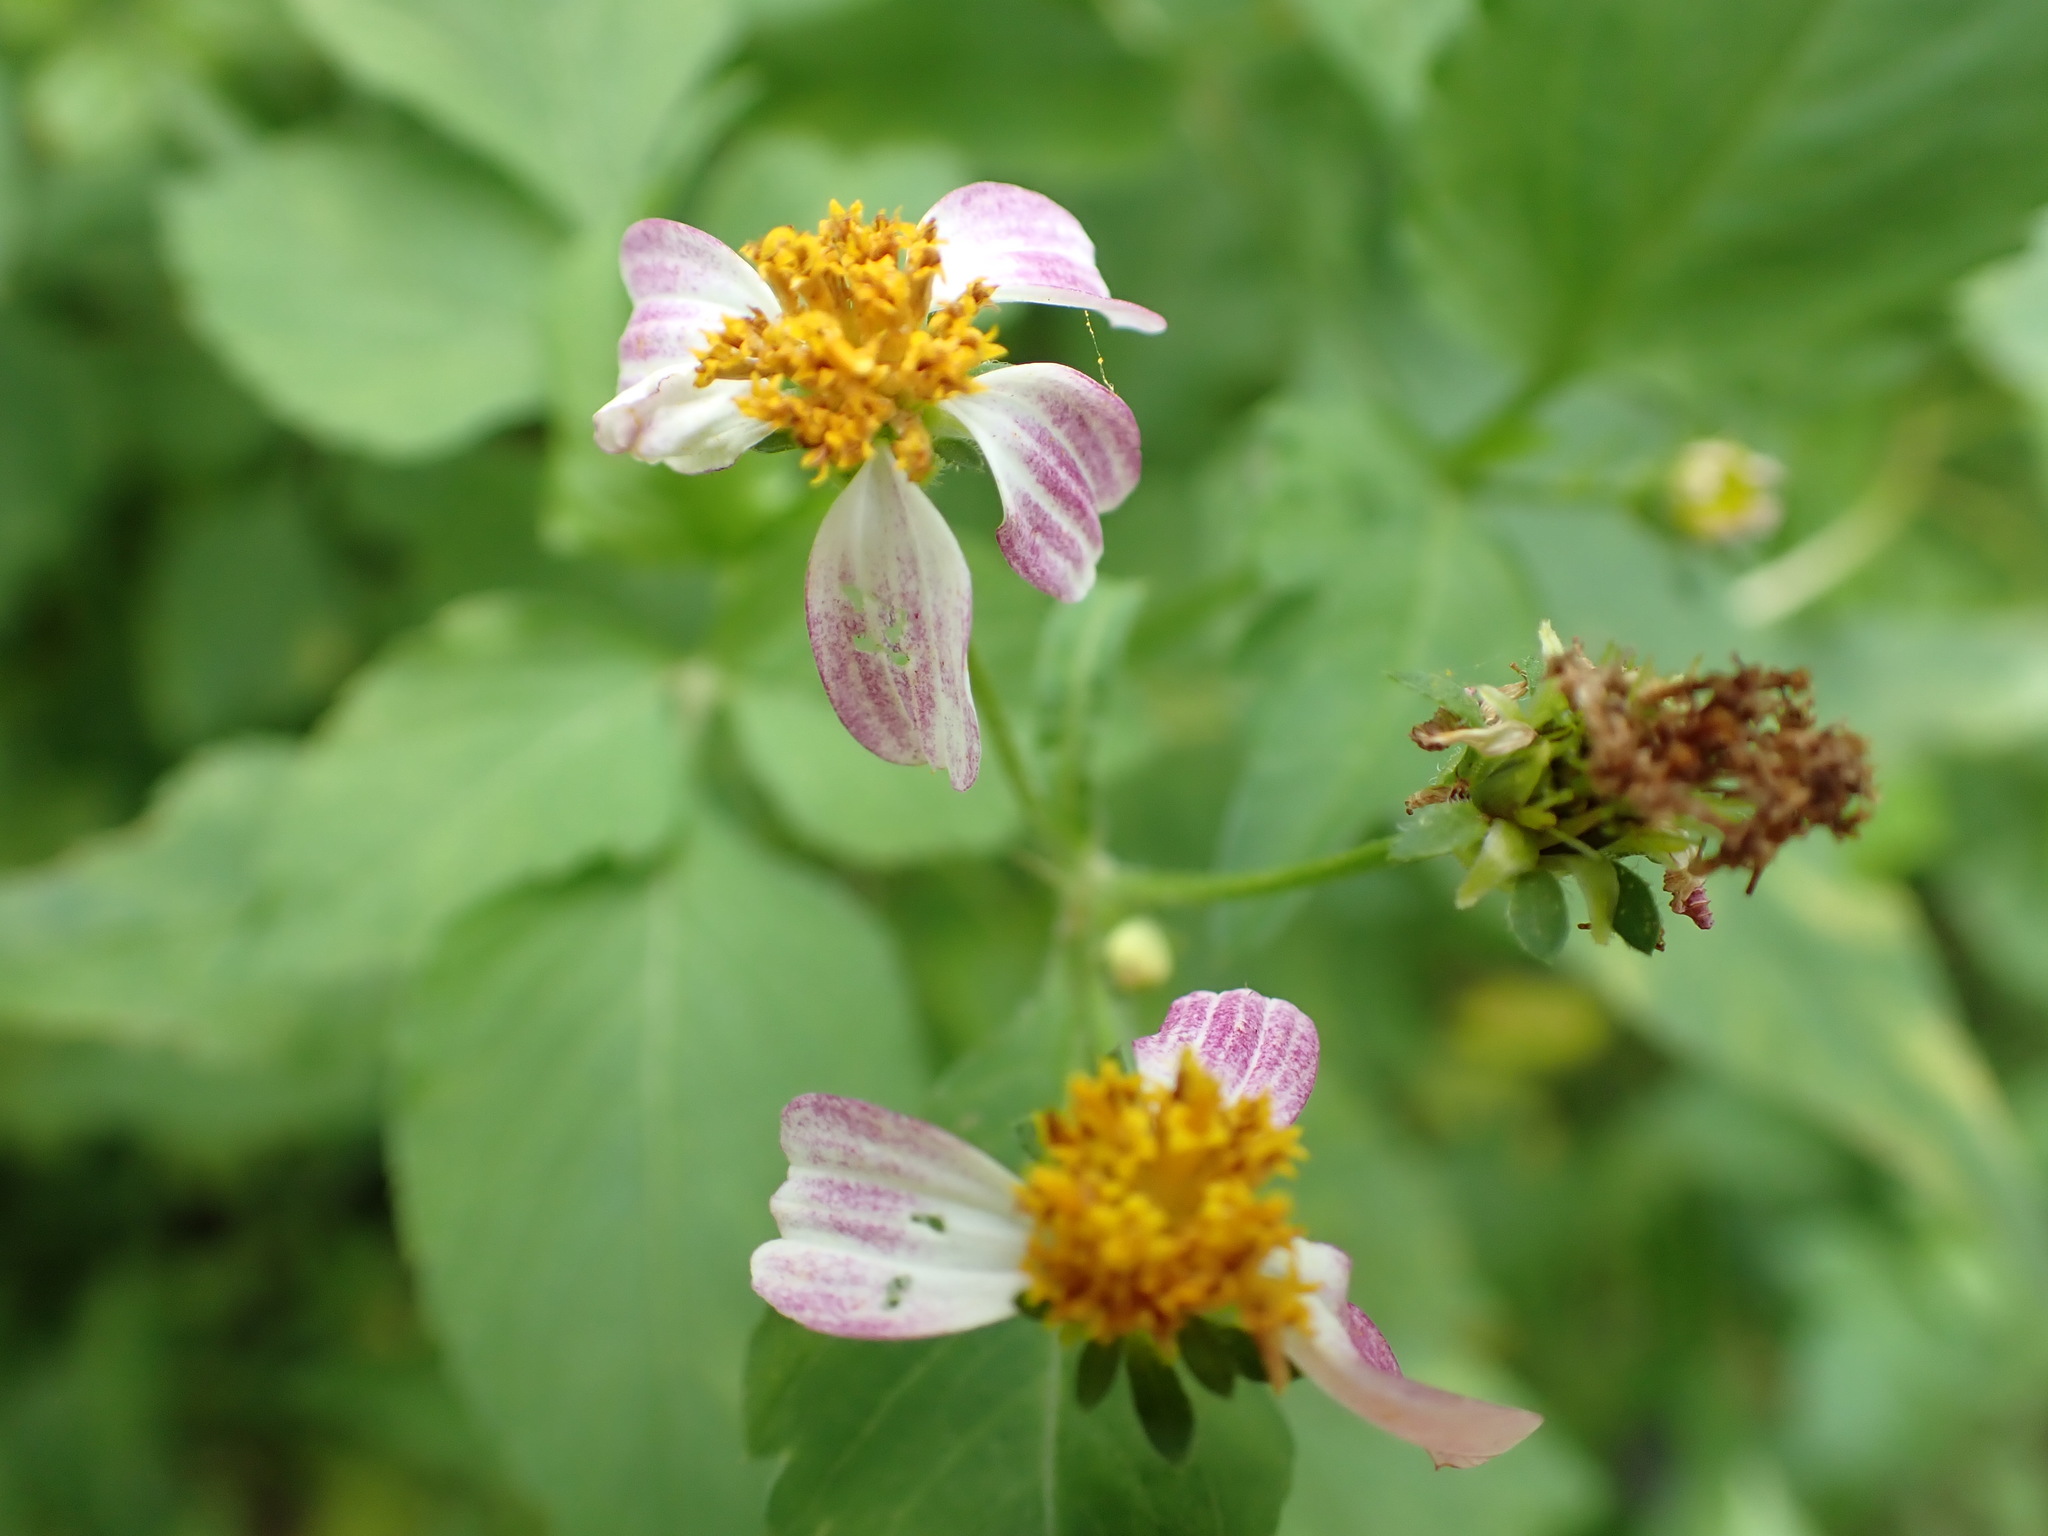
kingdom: Plantae
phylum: Tracheophyta
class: Magnoliopsida
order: Asterales
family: Asteraceae
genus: Bidens
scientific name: Bidens alba
